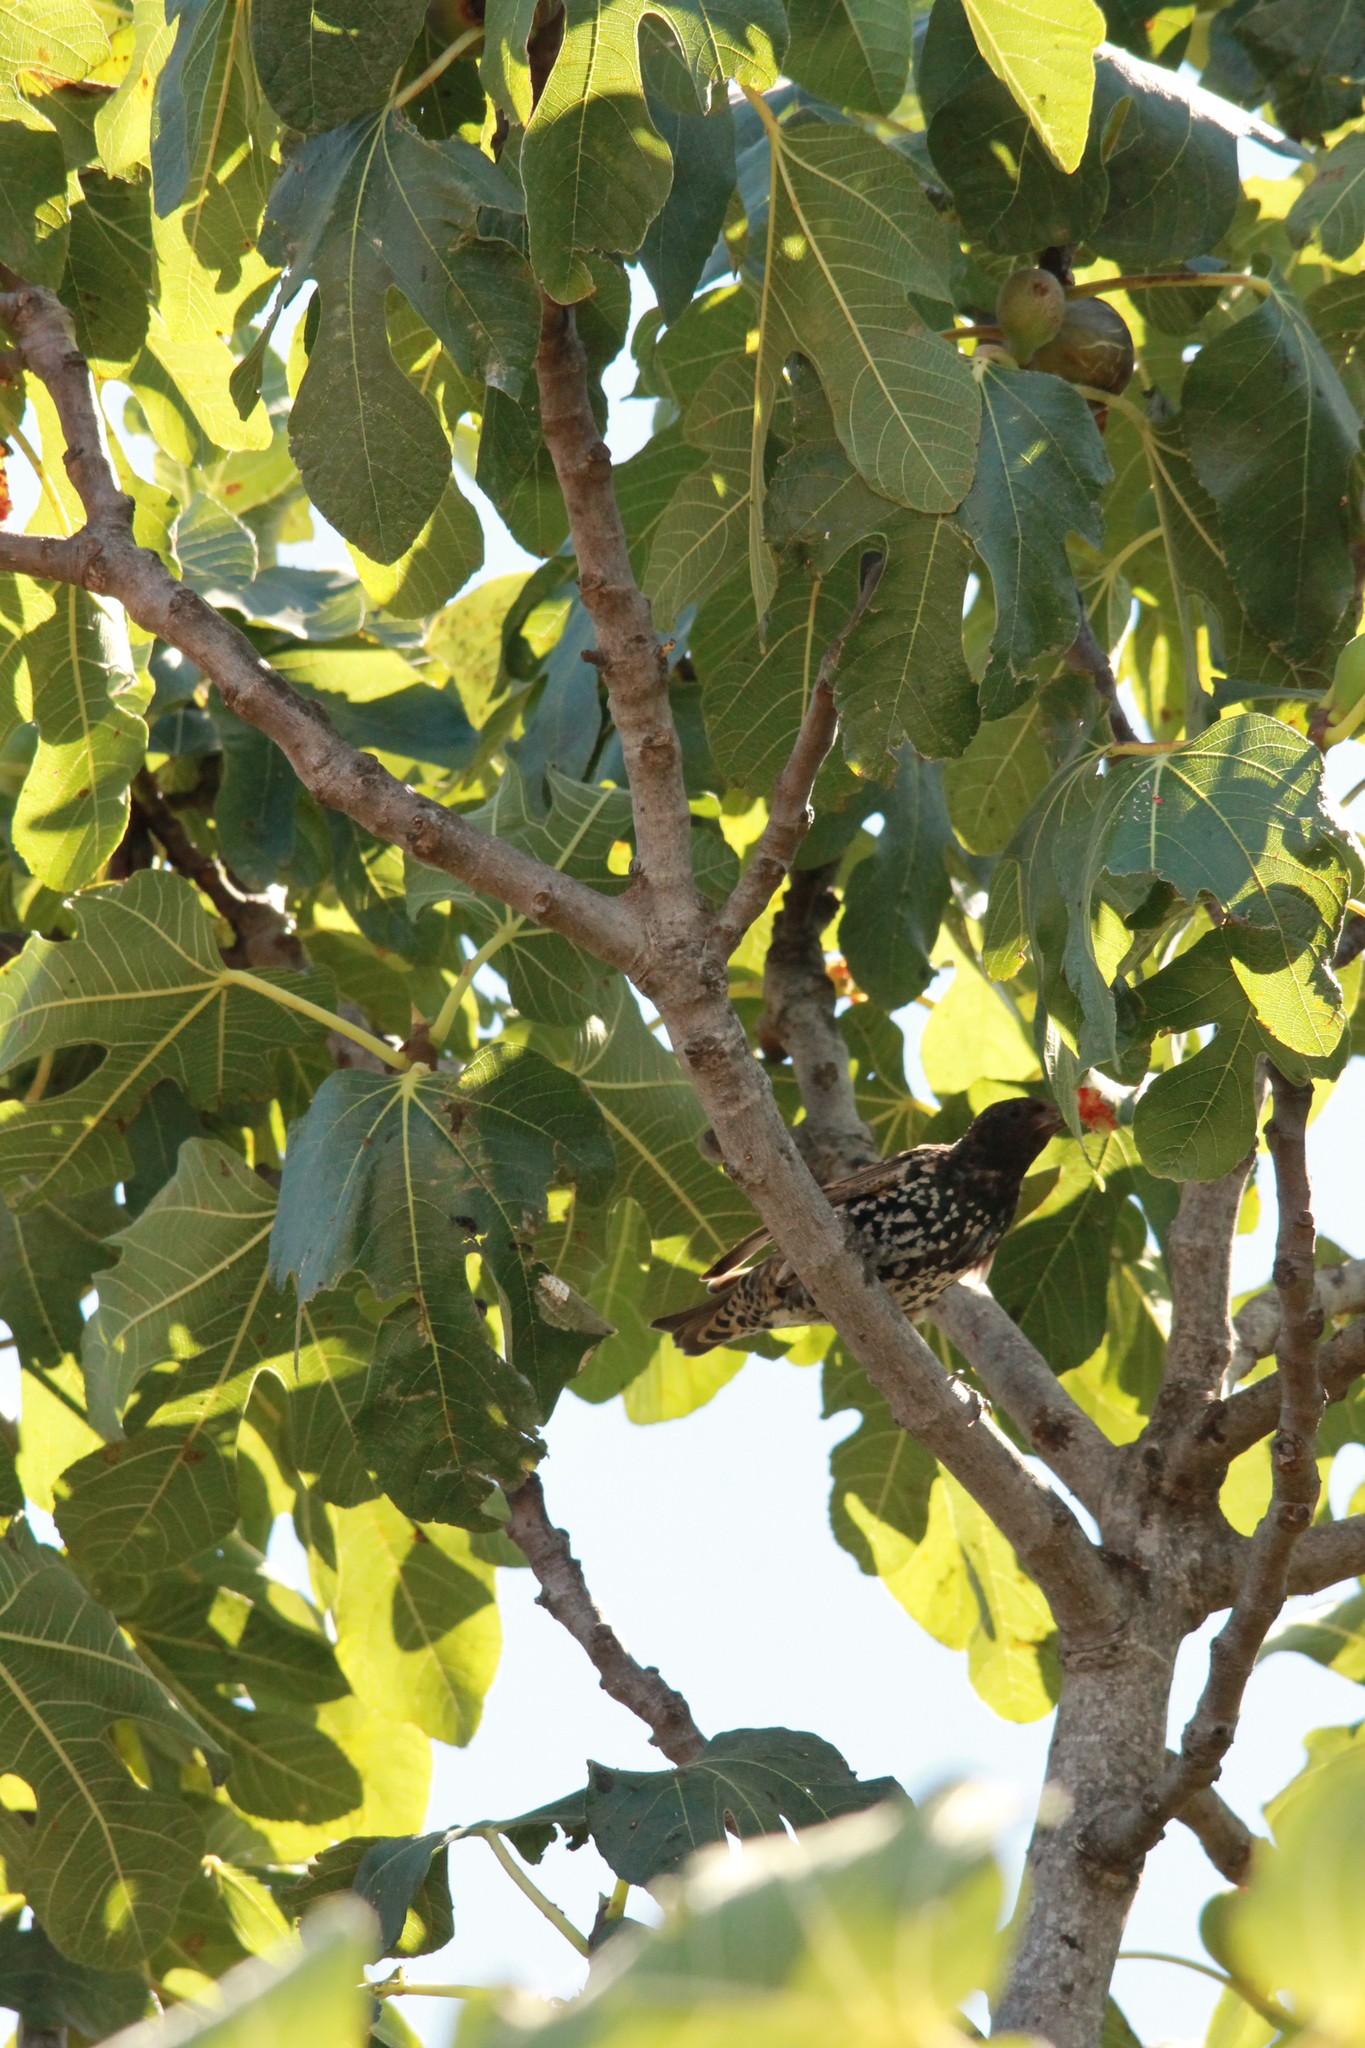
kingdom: Animalia
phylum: Chordata
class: Aves
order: Passeriformes
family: Sturnidae
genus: Sturnus
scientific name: Sturnus vulgaris
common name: Common starling
